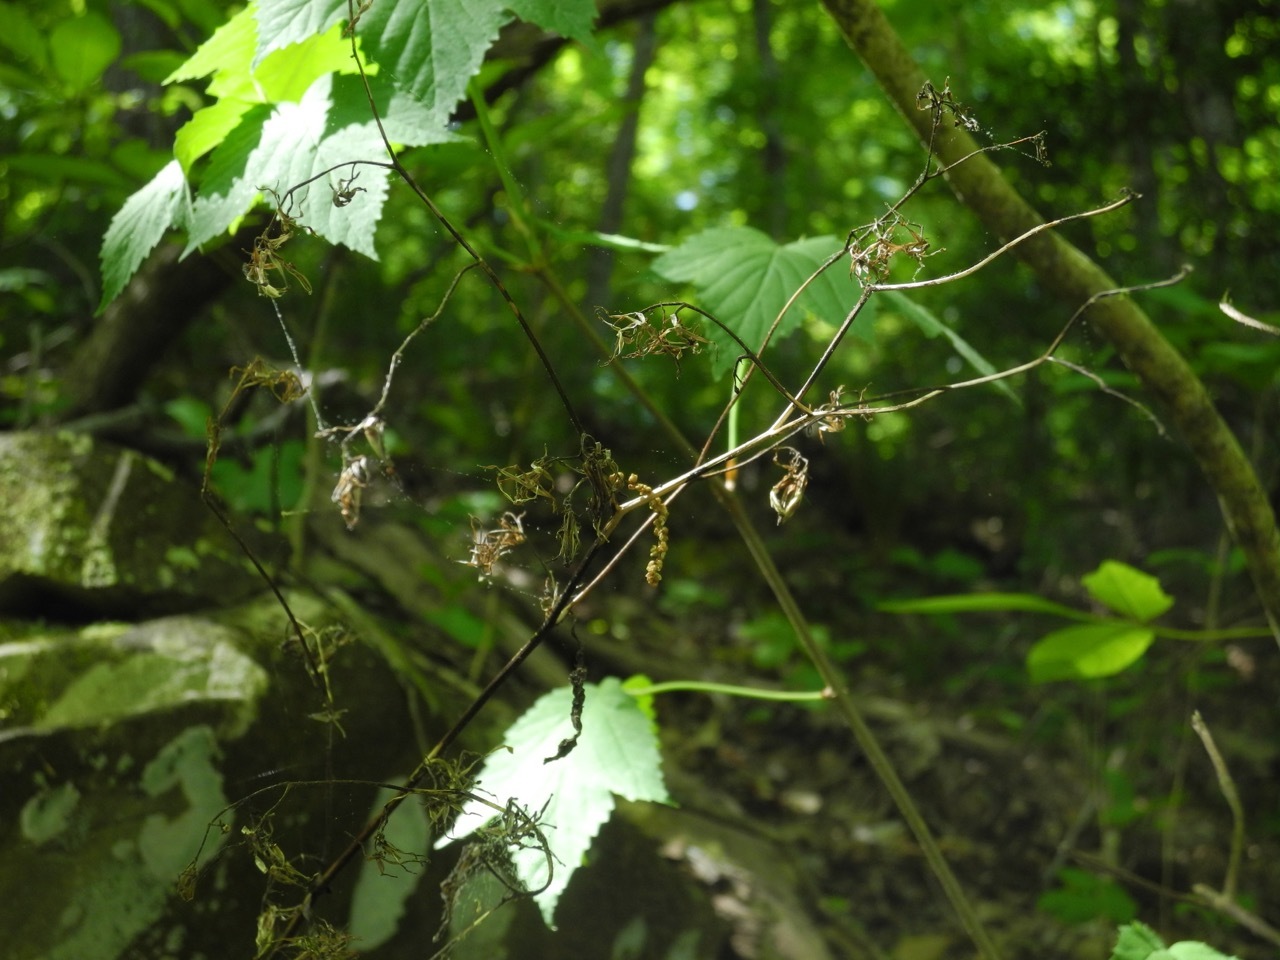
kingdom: Plantae
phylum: Tracheophyta
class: Magnoliopsida
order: Asterales
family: Asteraceae
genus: Nabalus
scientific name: Nabalus albus
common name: White rattlesnakeroot
